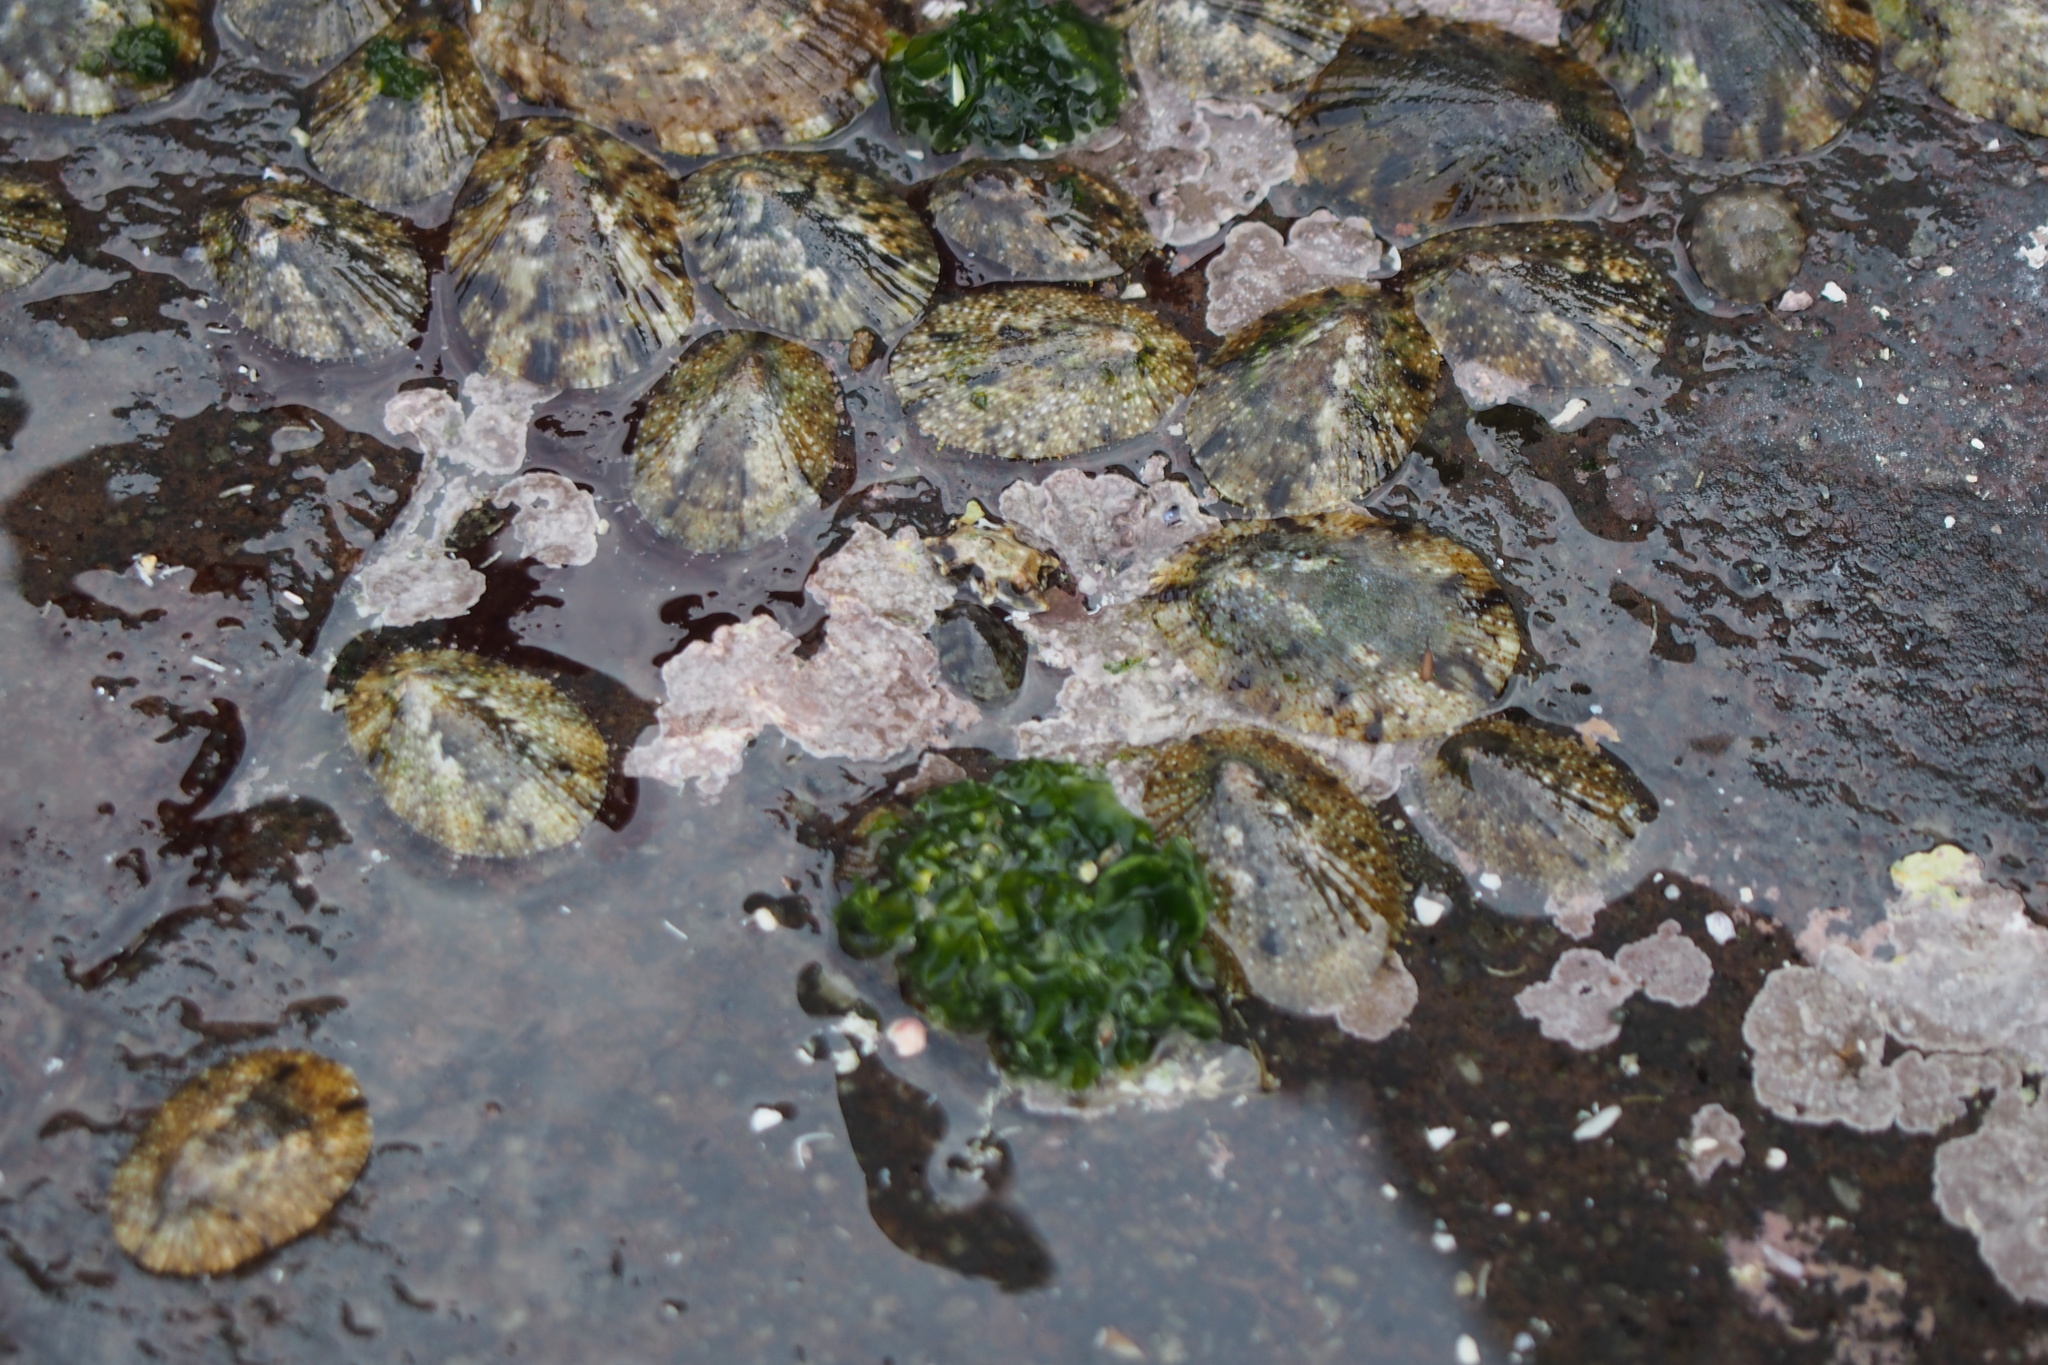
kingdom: Animalia
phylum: Mollusca
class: Gastropoda
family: Nacellidae
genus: Cellana
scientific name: Cellana toreuma
